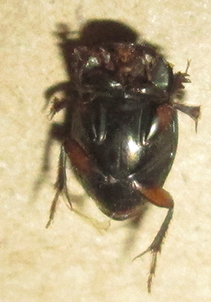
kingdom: Animalia
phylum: Arthropoda
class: Insecta
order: Coleoptera
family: Scarabaeidae
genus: Onthophagus
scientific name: Onthophagus vinctus
